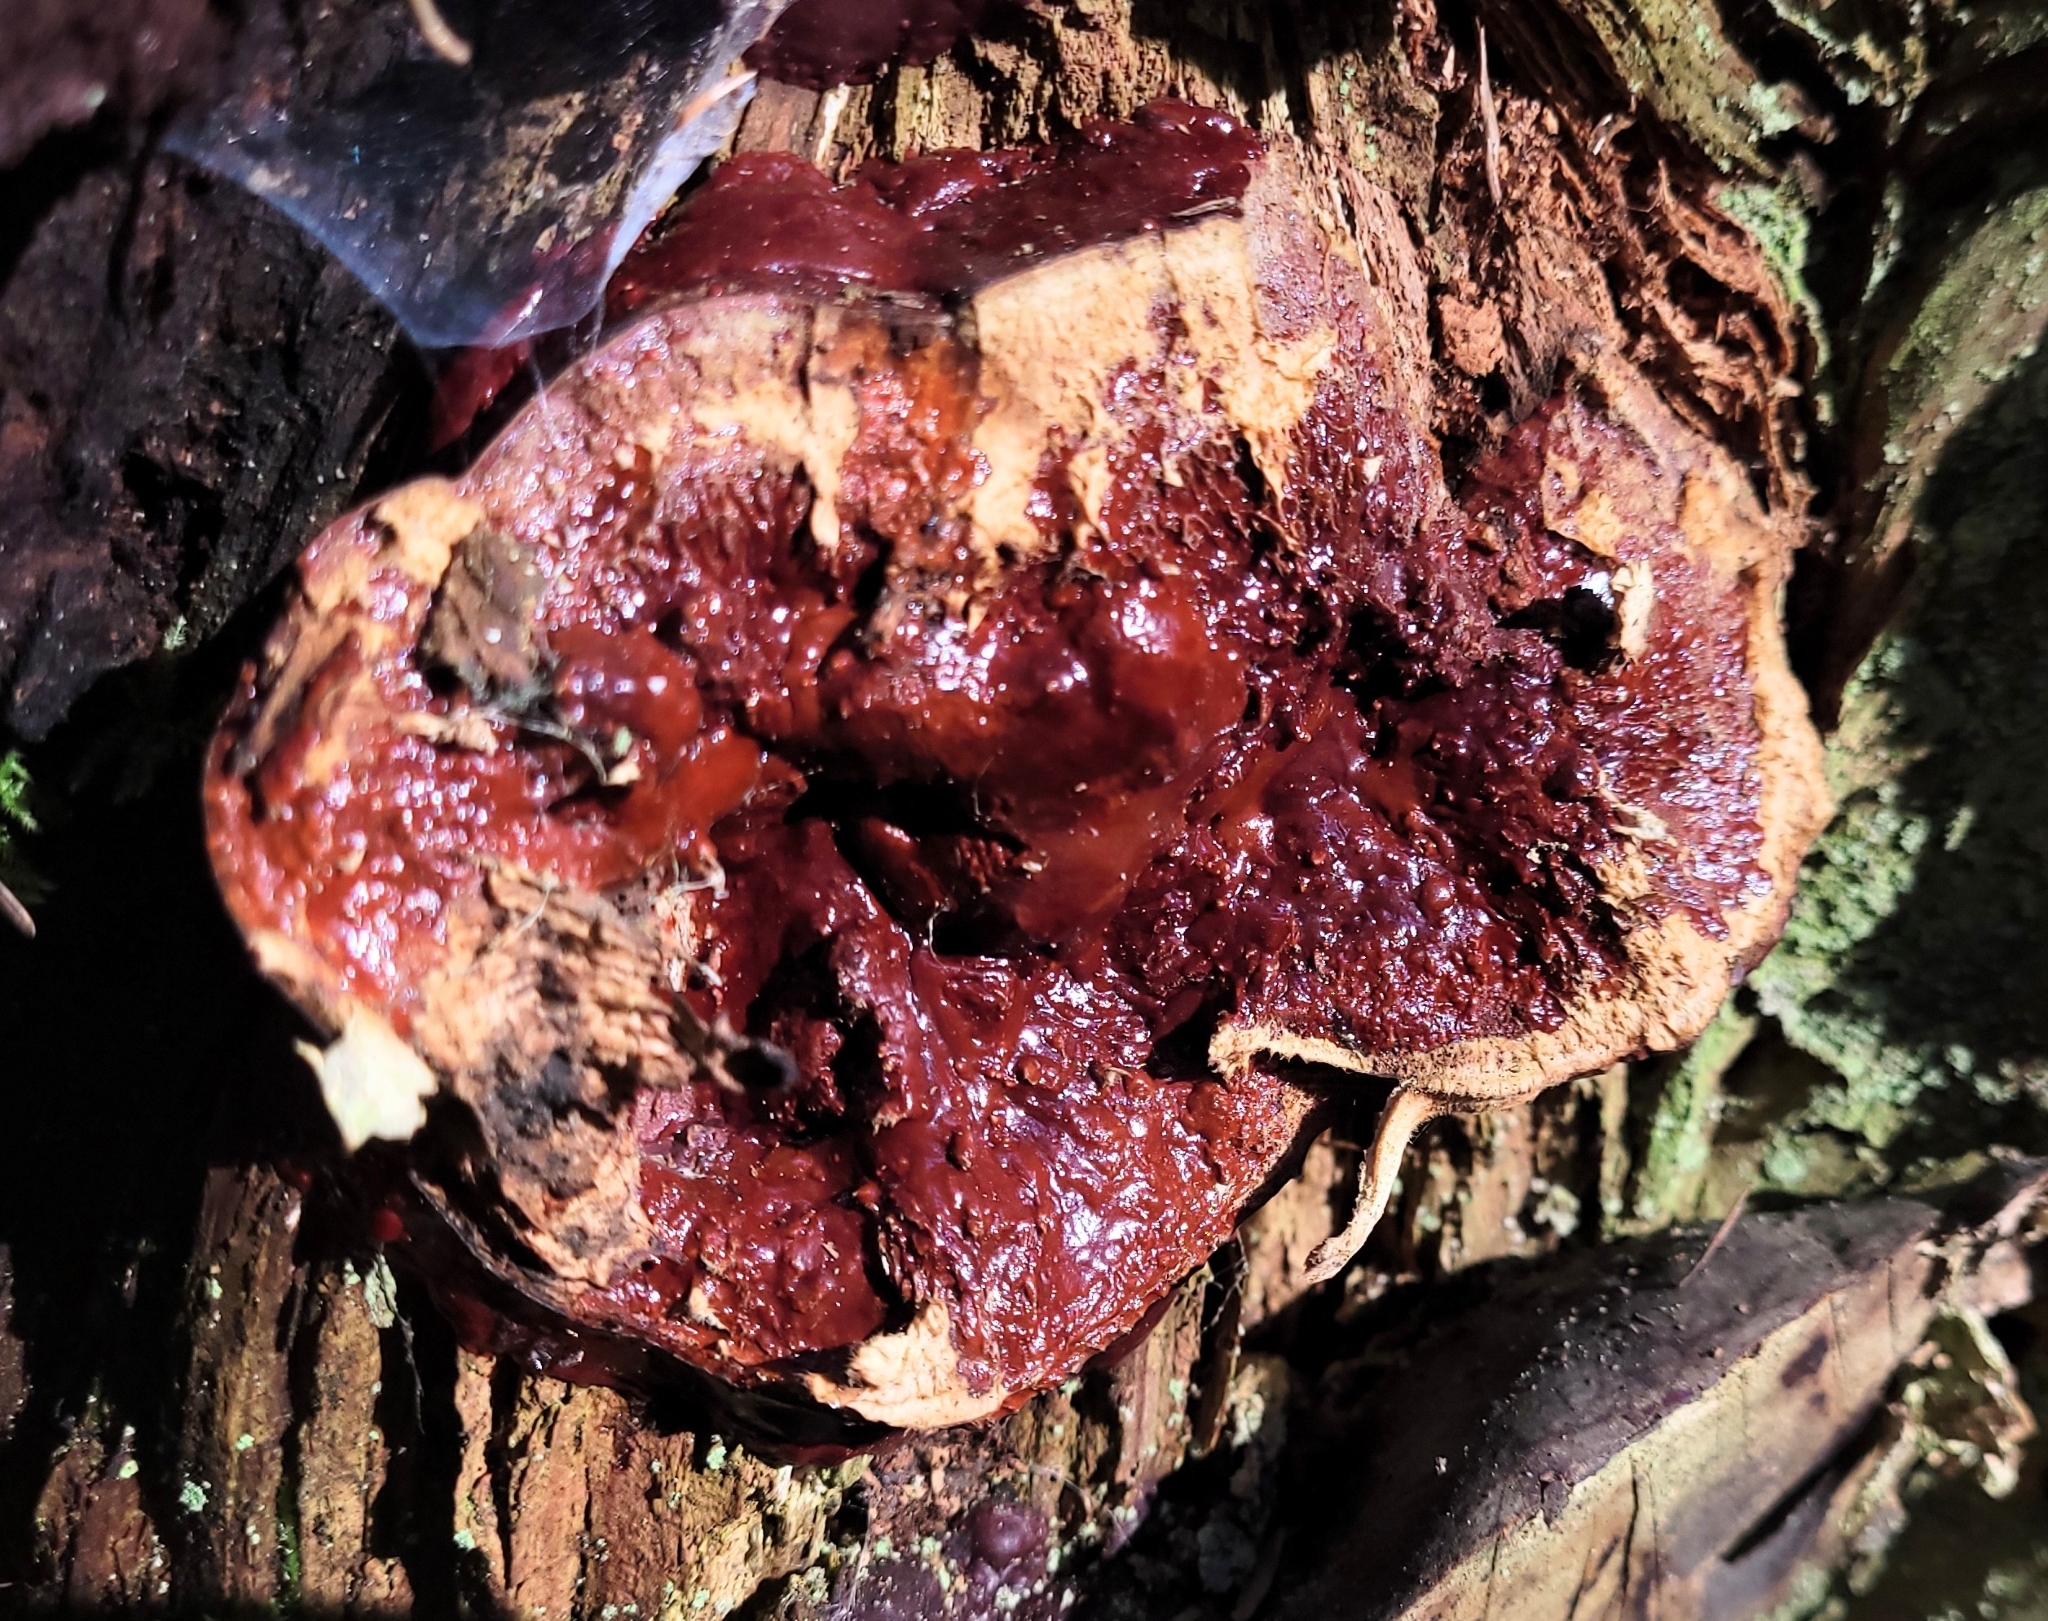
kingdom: Fungi
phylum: Basidiomycota
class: Agaricomycetes
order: Polyporales
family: Polyporaceae
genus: Ganoderma
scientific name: Ganoderma oregonense
